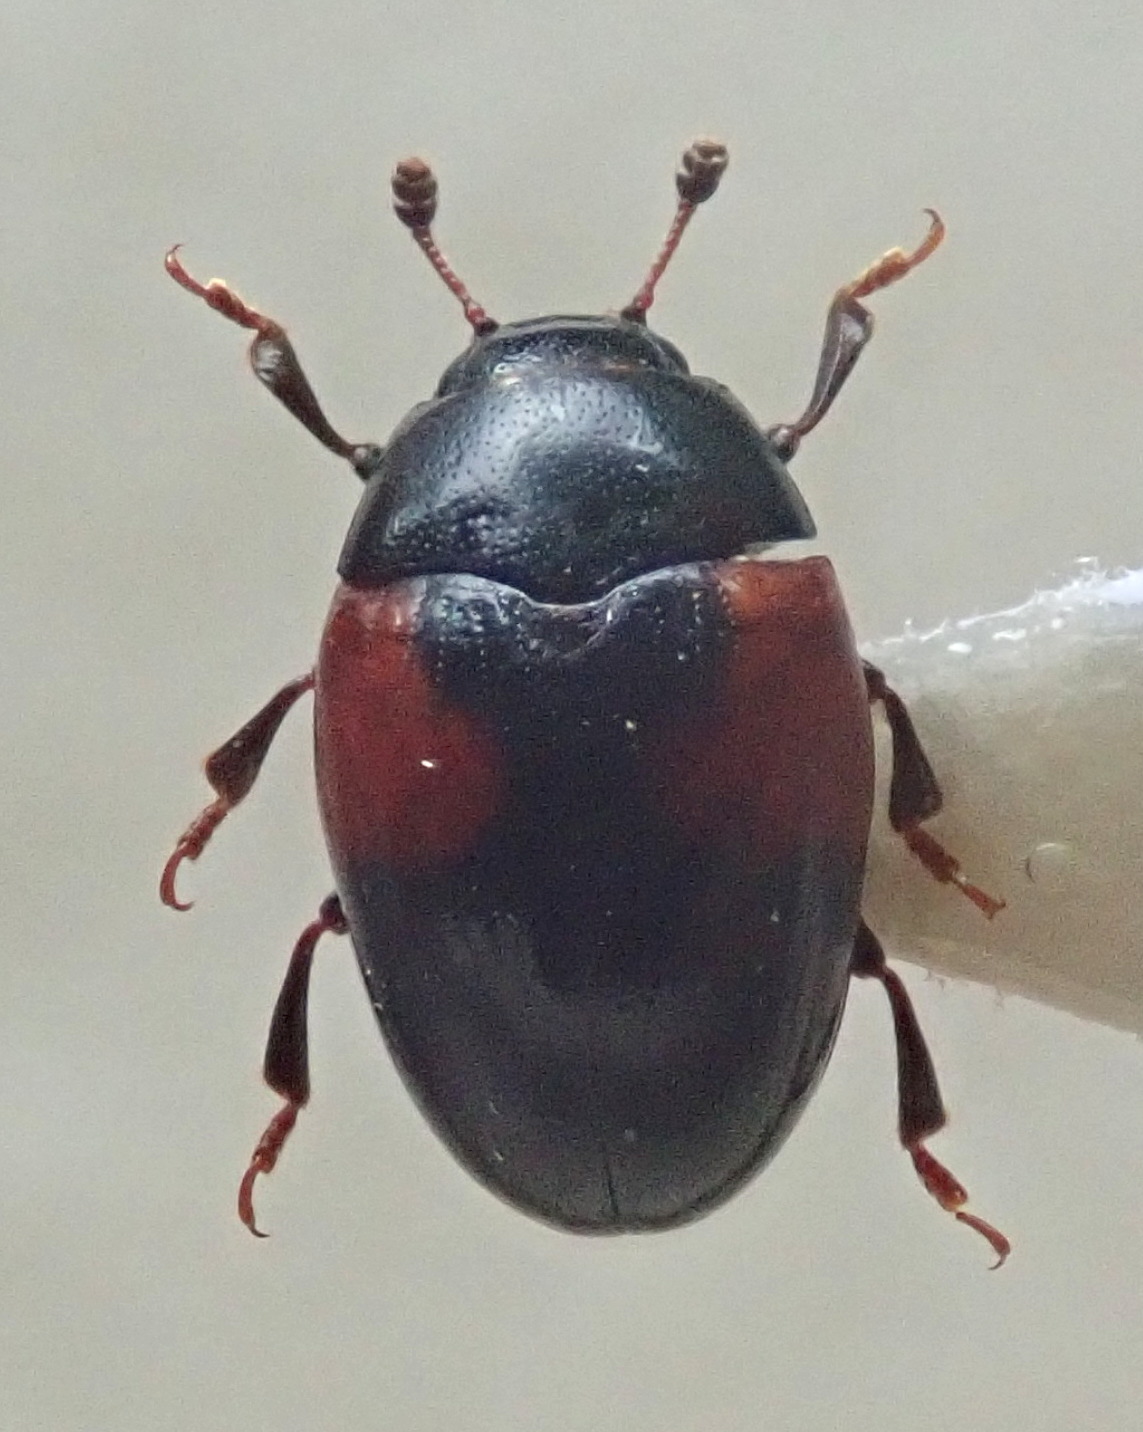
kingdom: Animalia
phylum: Arthropoda
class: Insecta
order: Coleoptera
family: Erotylidae
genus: Tritoma
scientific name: Tritoma bipustulata
